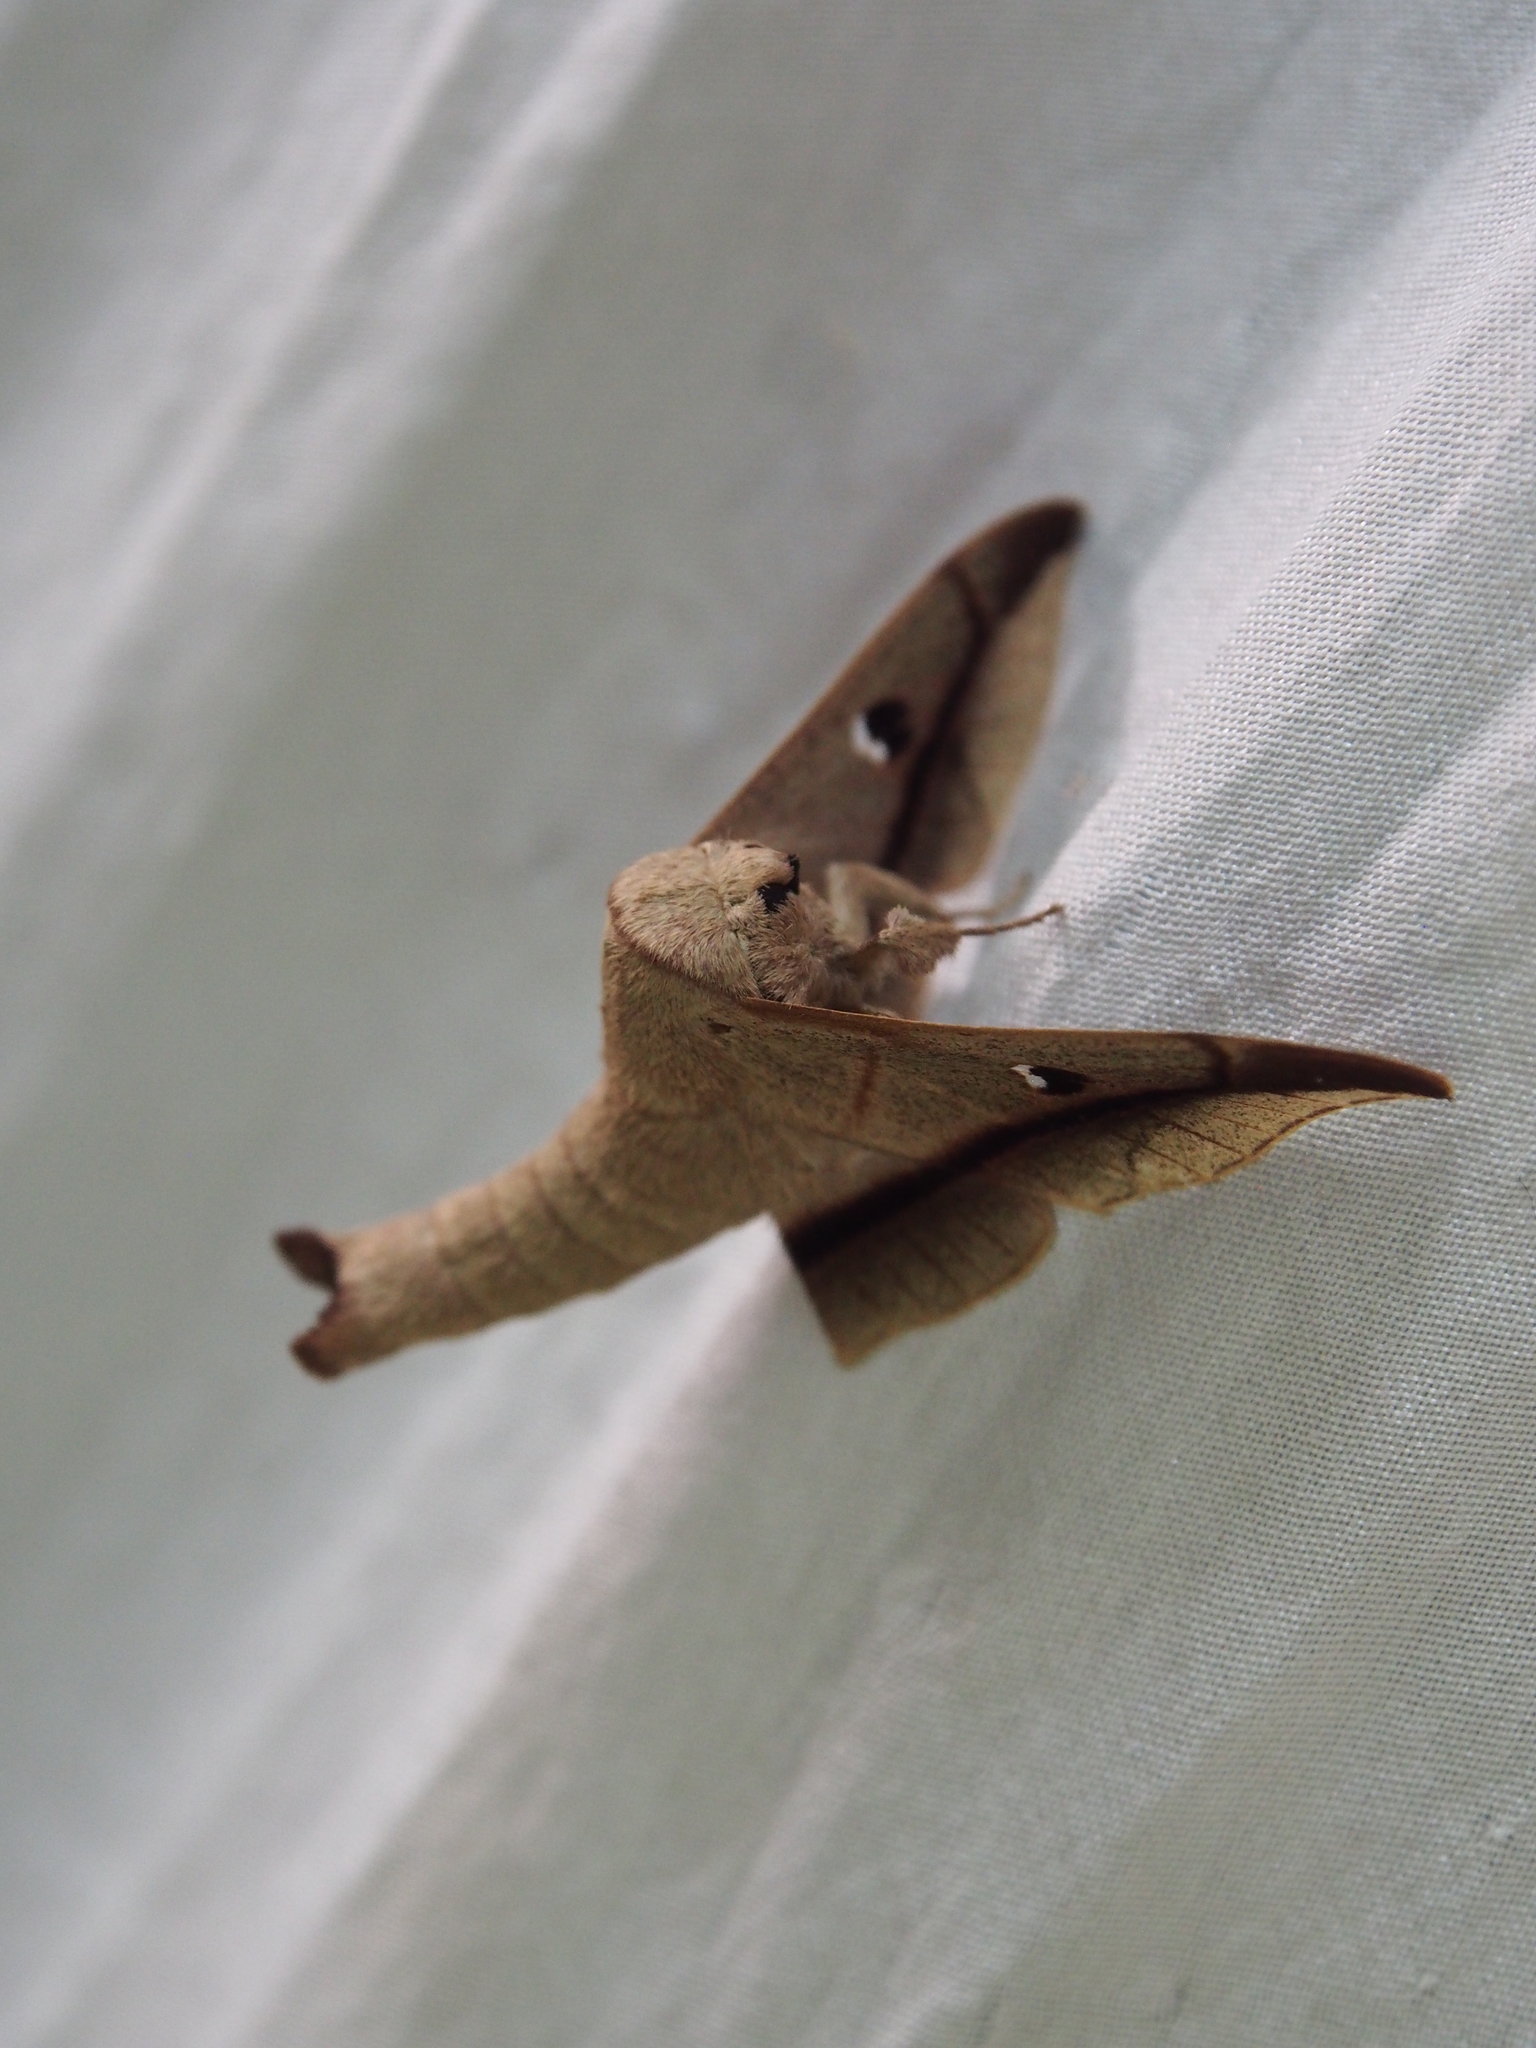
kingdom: Animalia
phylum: Arthropoda
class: Insecta
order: Lepidoptera
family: Mimallonidae
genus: Bedosiallo
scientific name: Bedosiallo
